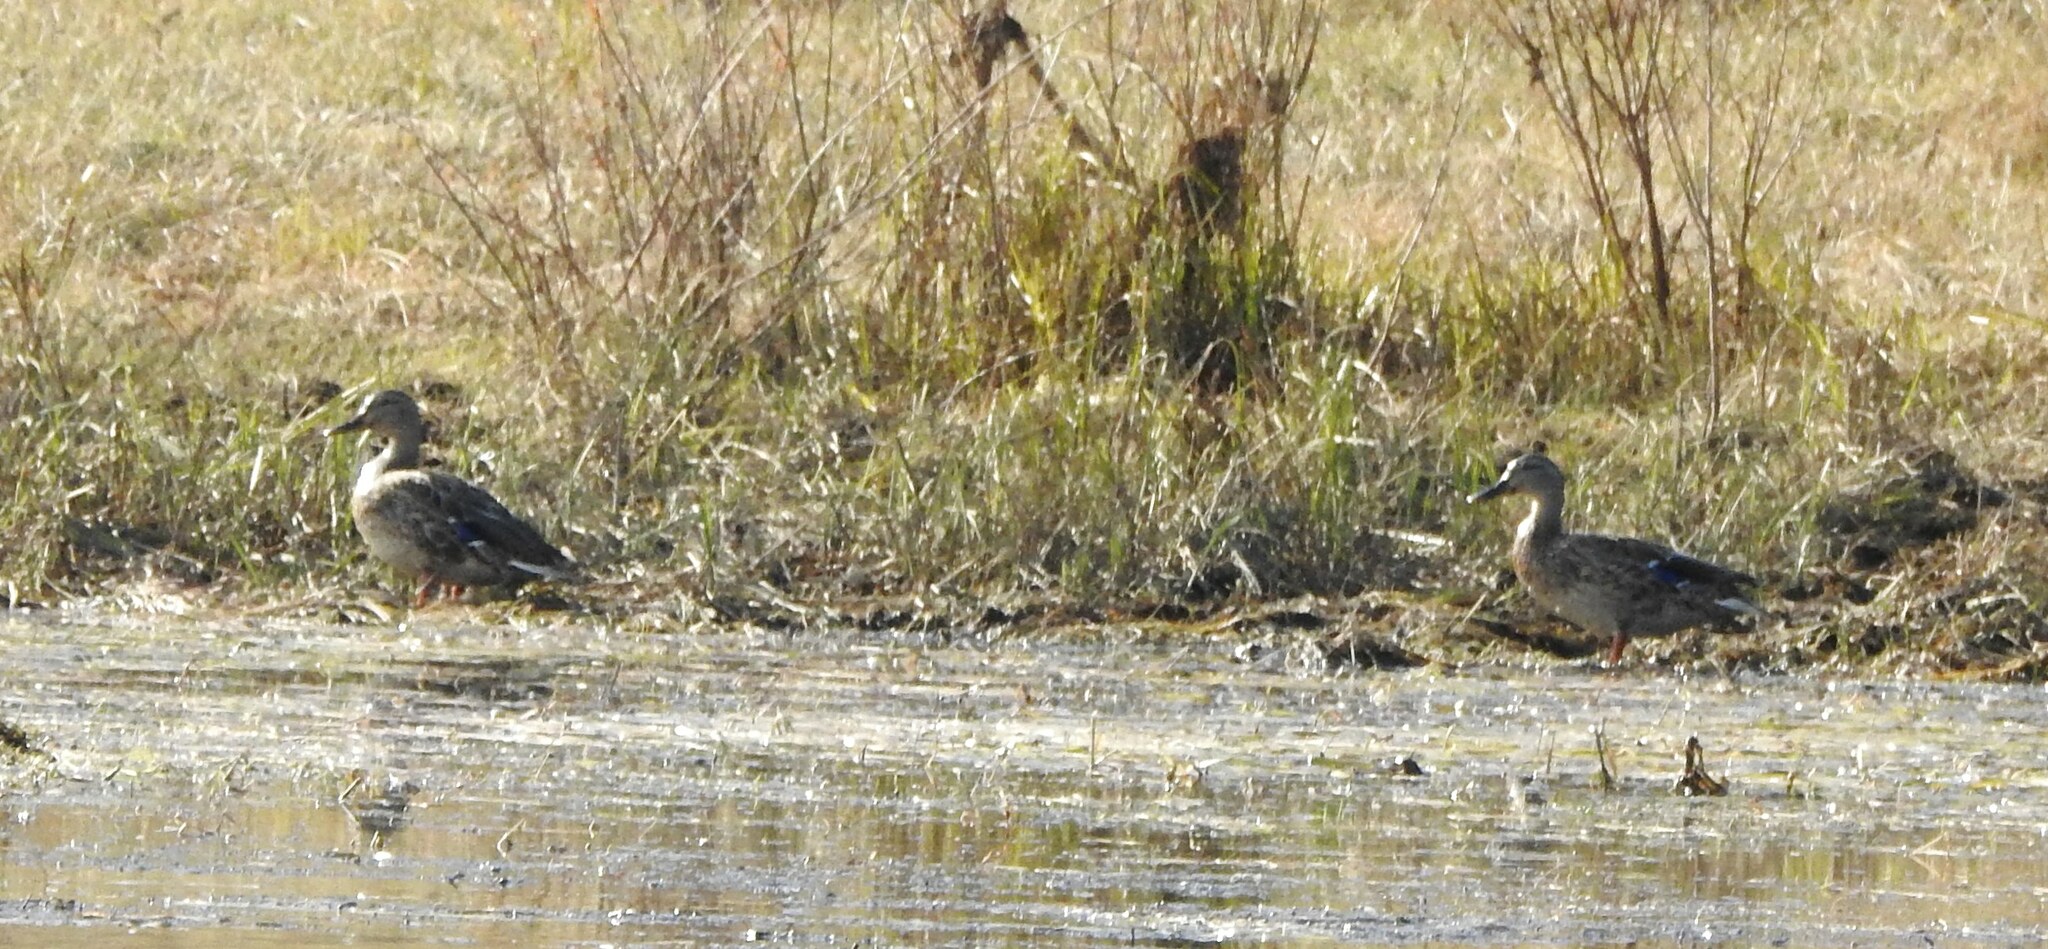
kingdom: Animalia
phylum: Chordata
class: Aves
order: Anseriformes
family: Anatidae
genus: Anas
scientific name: Anas platyrhynchos
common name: Mallard
